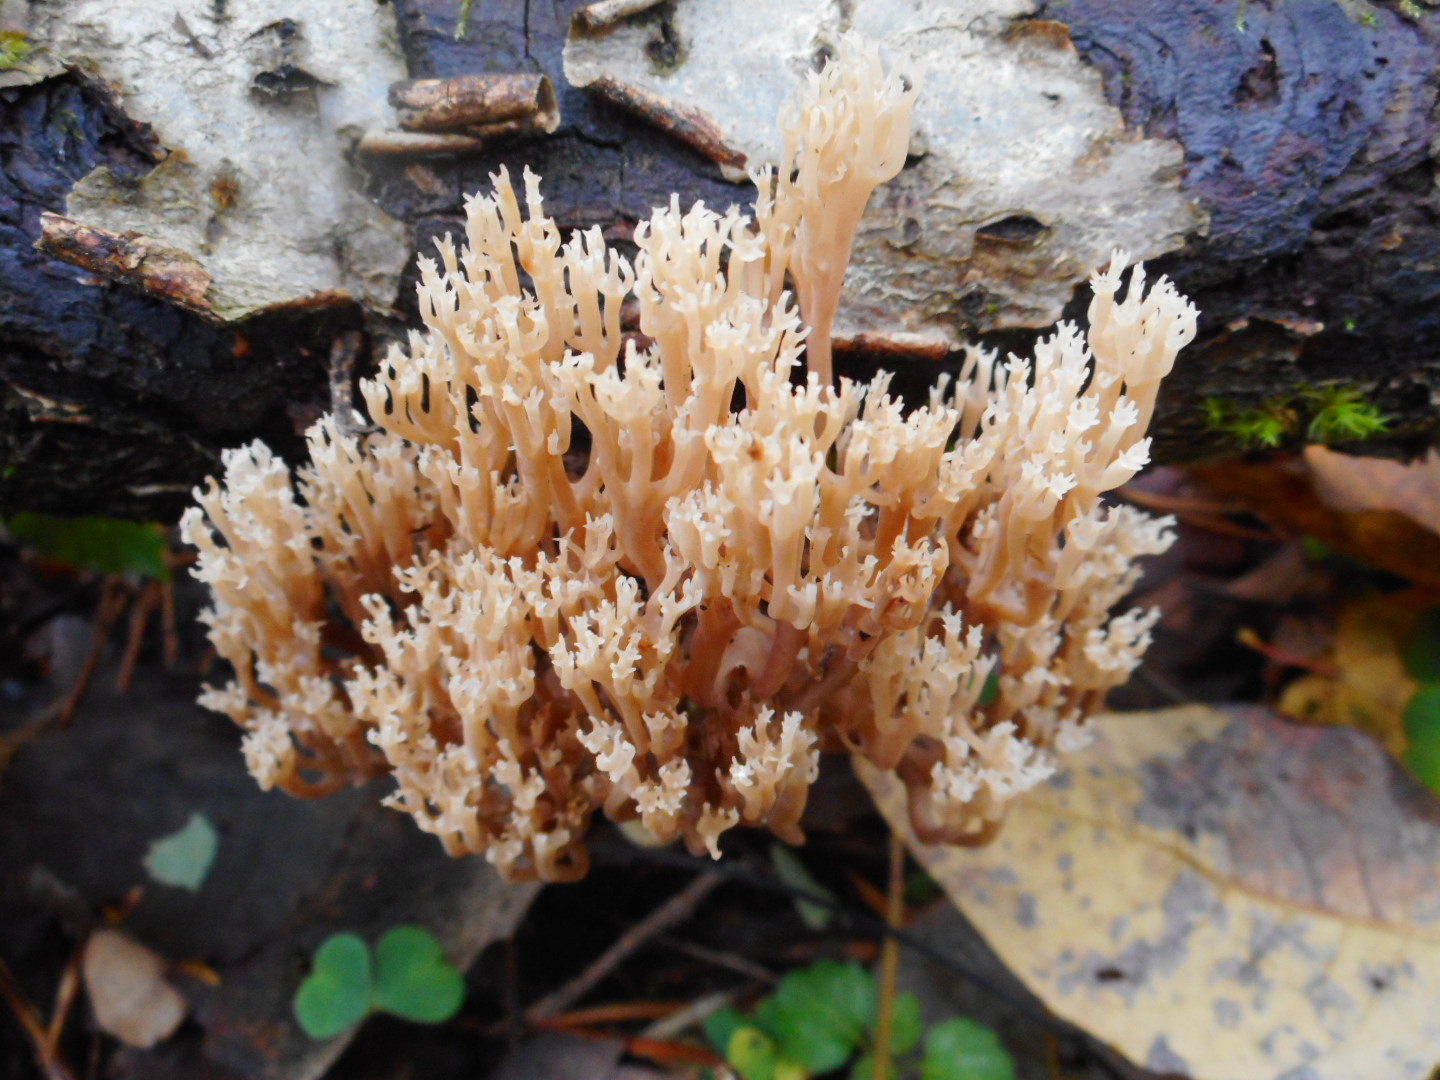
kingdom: Fungi
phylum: Basidiomycota
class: Agaricomycetes
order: Russulales
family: Auriscalpiaceae
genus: Artomyces
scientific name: Artomyces pyxidatus
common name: Crown-tipped coral fungus
